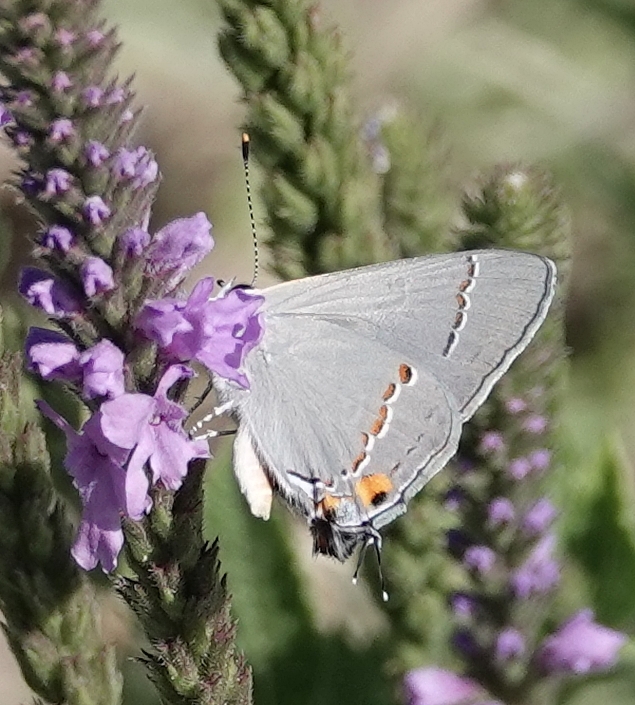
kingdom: Animalia
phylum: Arthropoda
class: Insecta
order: Lepidoptera
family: Lycaenidae
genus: Strymon
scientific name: Strymon melinus
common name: Gray hairstreak
